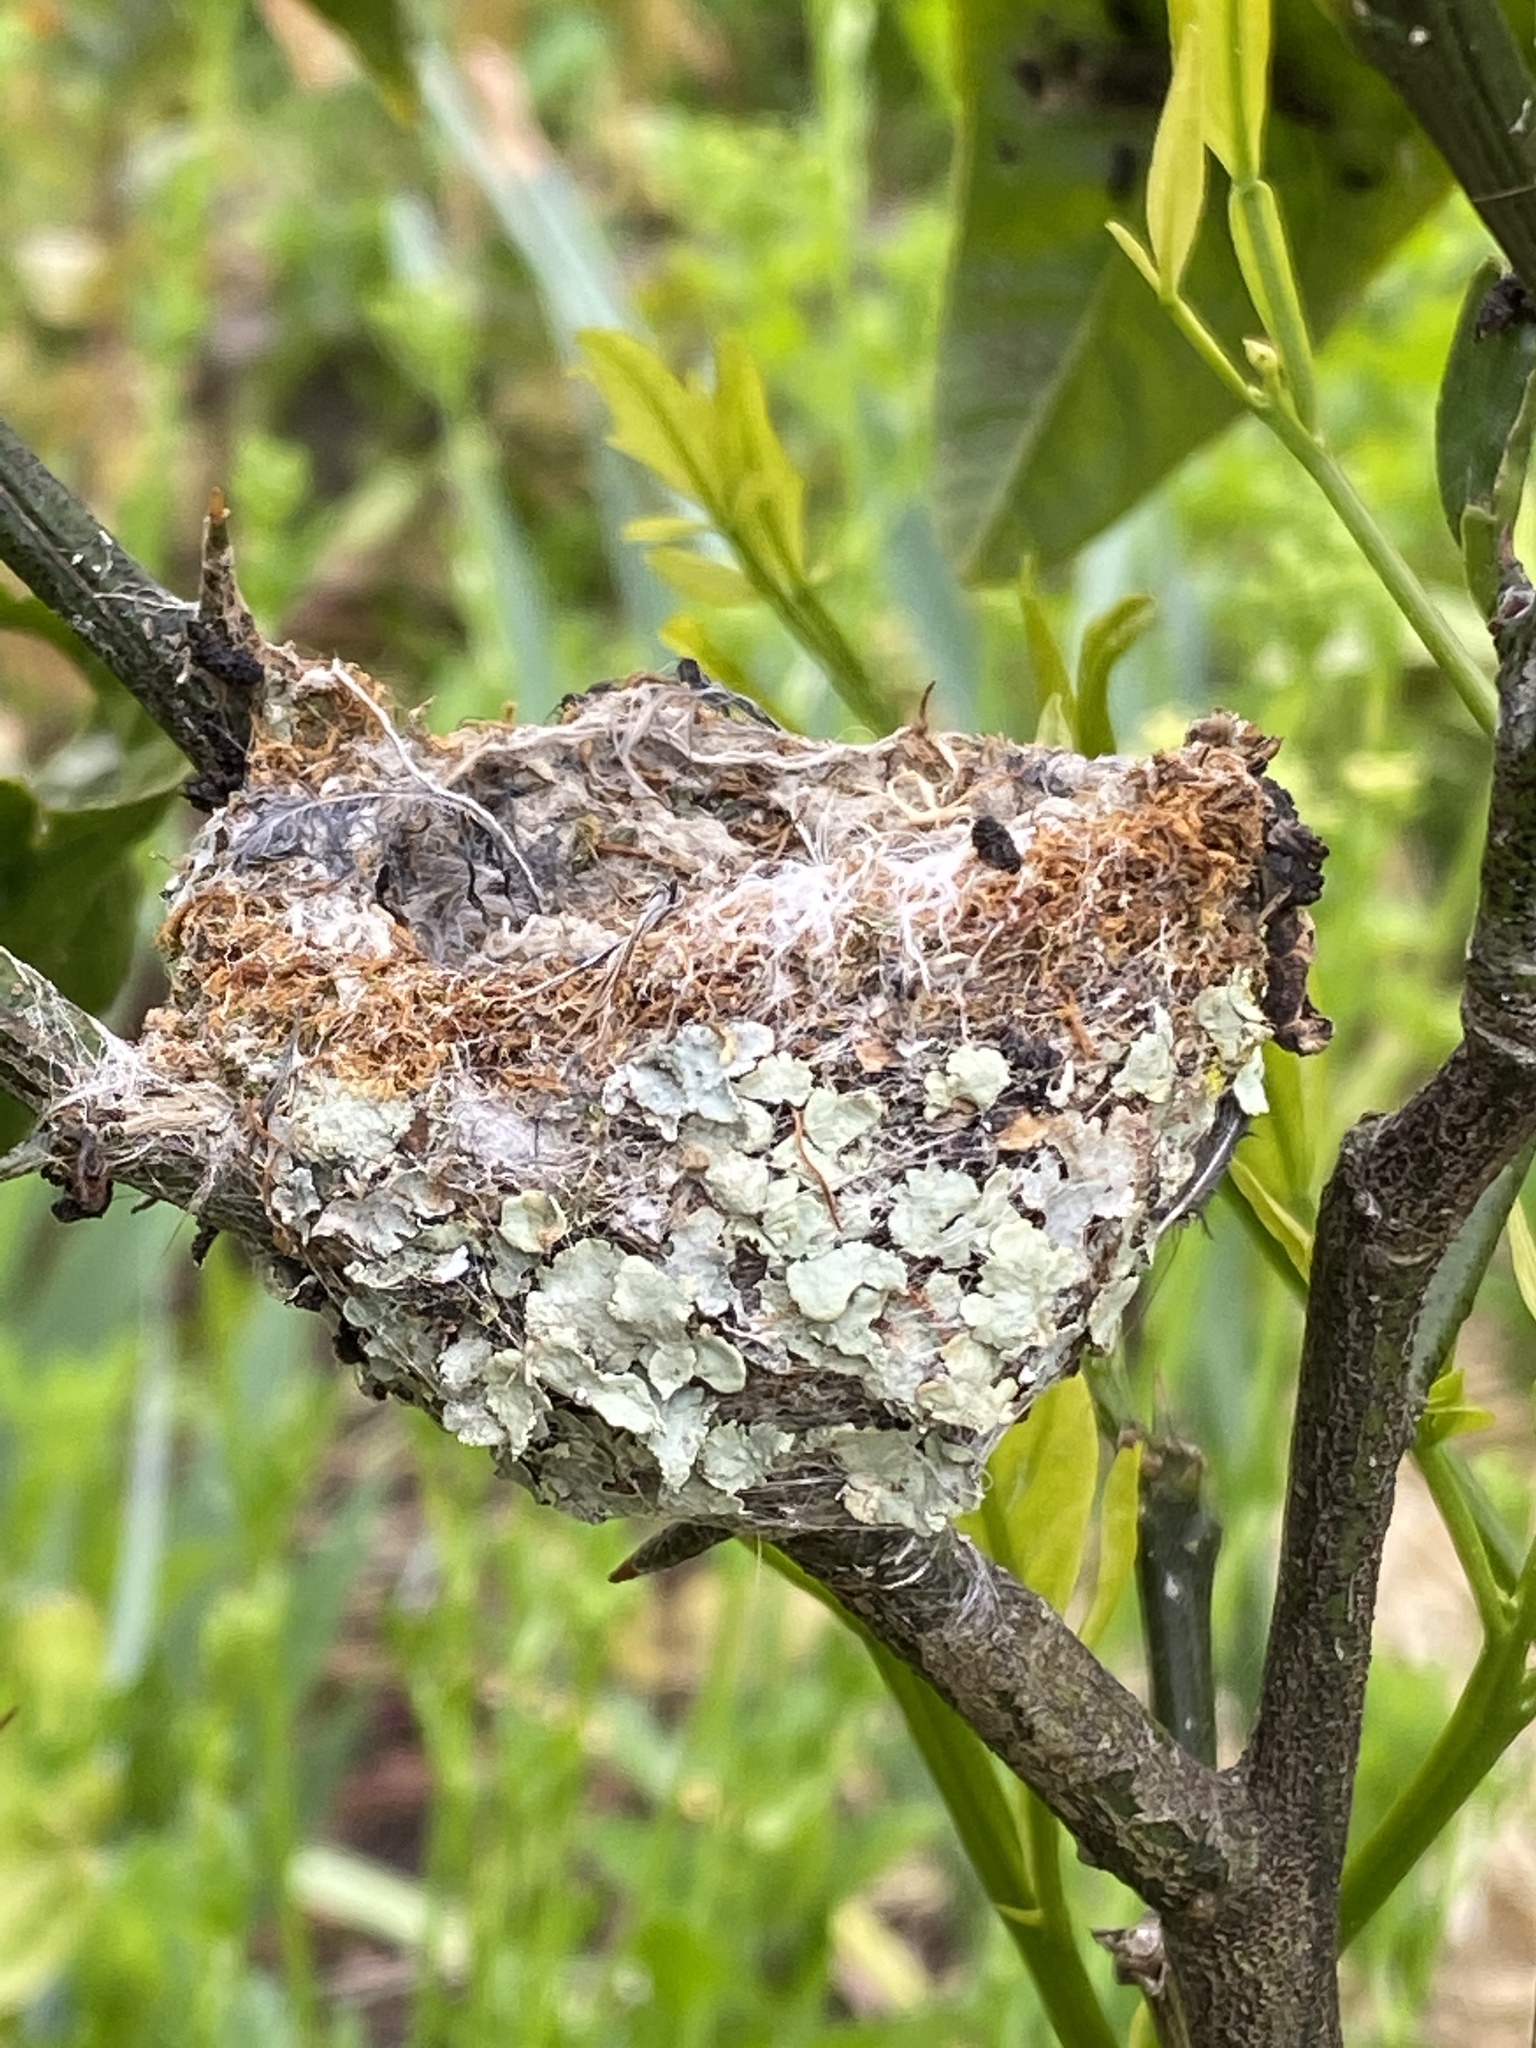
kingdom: Animalia
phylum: Chordata
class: Aves
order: Apodiformes
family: Trochilidae
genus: Calypte
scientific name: Calypte anna
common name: Anna's hummingbird
